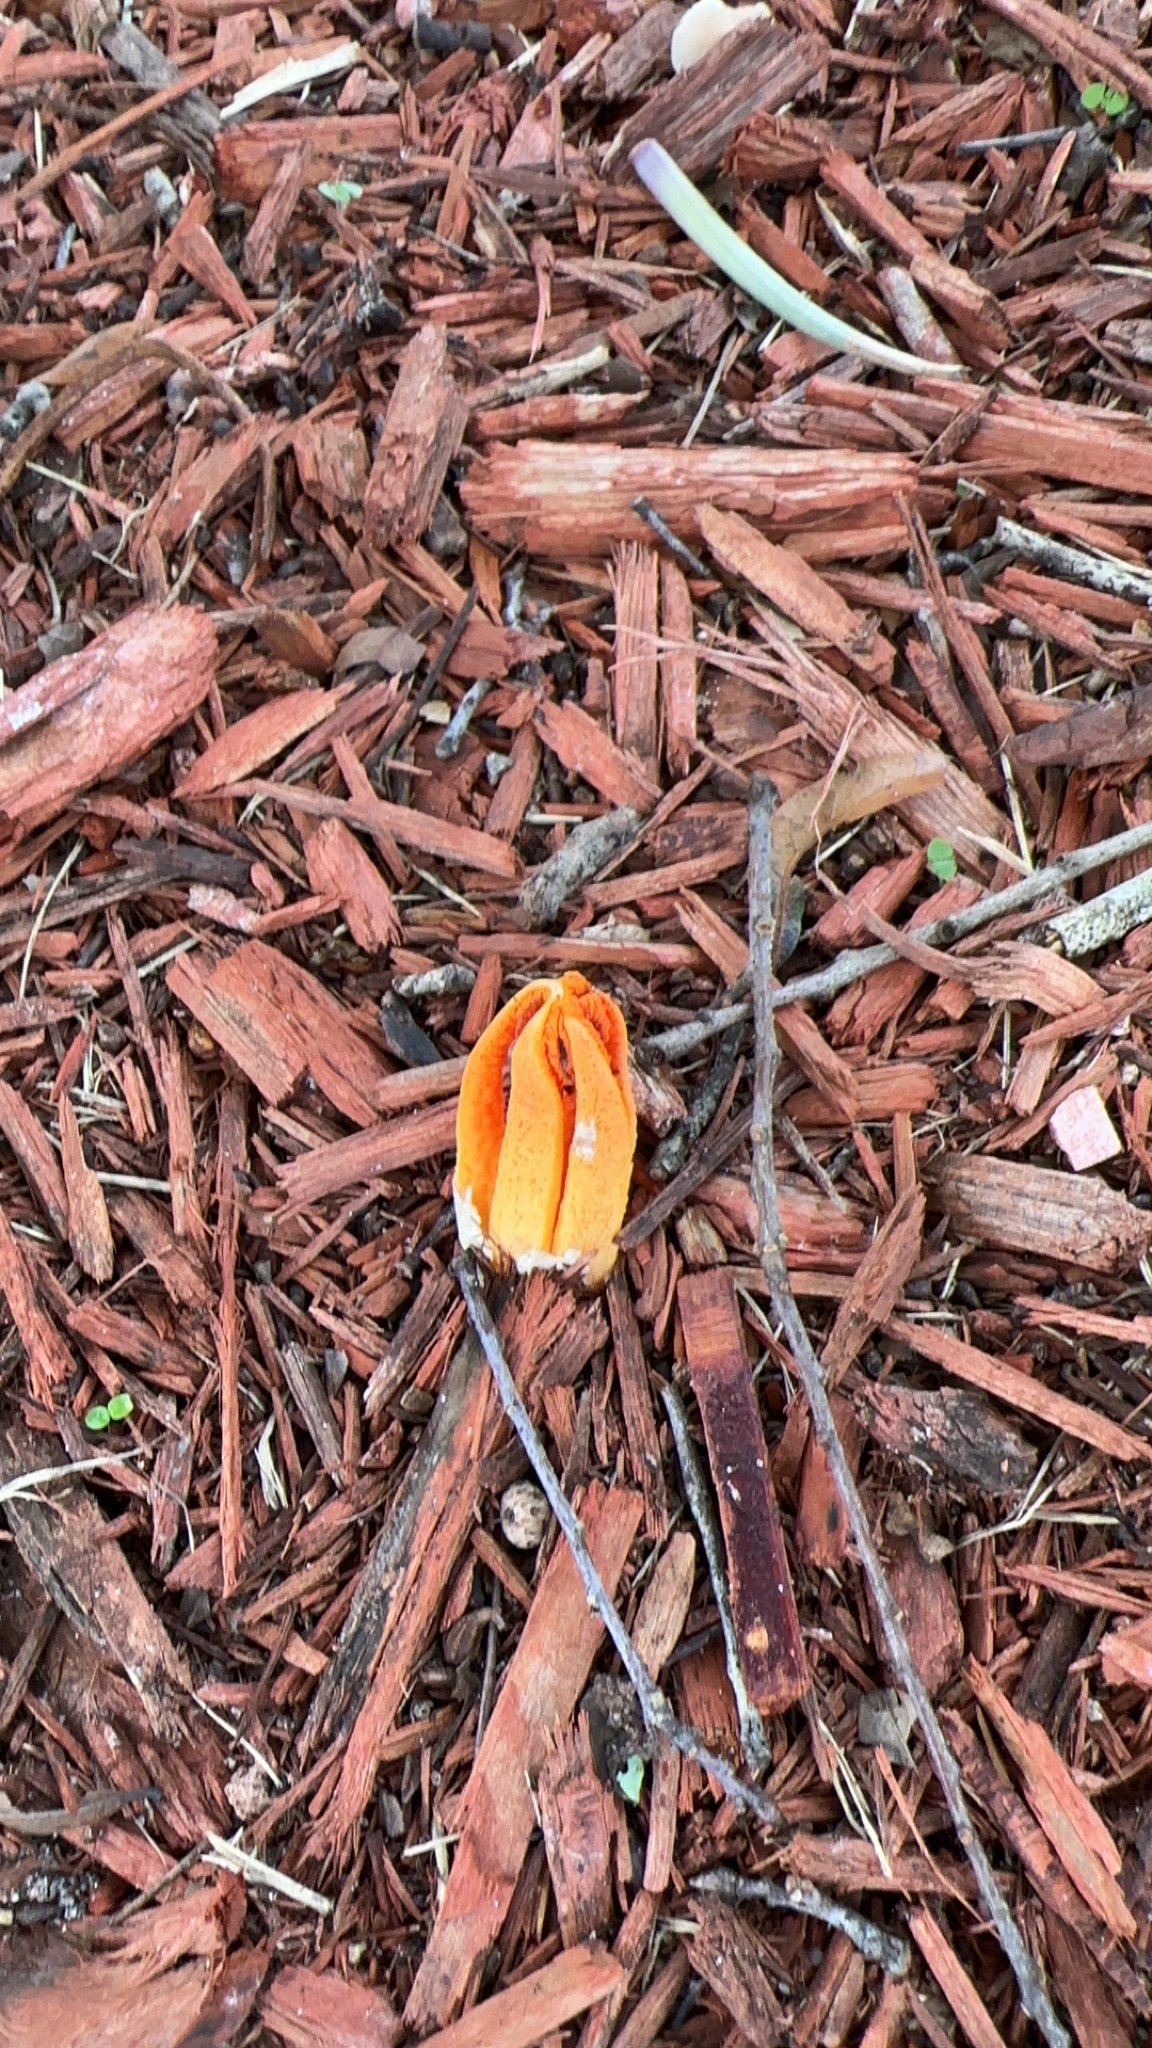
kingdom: Fungi
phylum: Basidiomycota
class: Agaricomycetes
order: Phallales
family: Phallaceae
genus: Clathrus
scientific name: Clathrus columnatus
